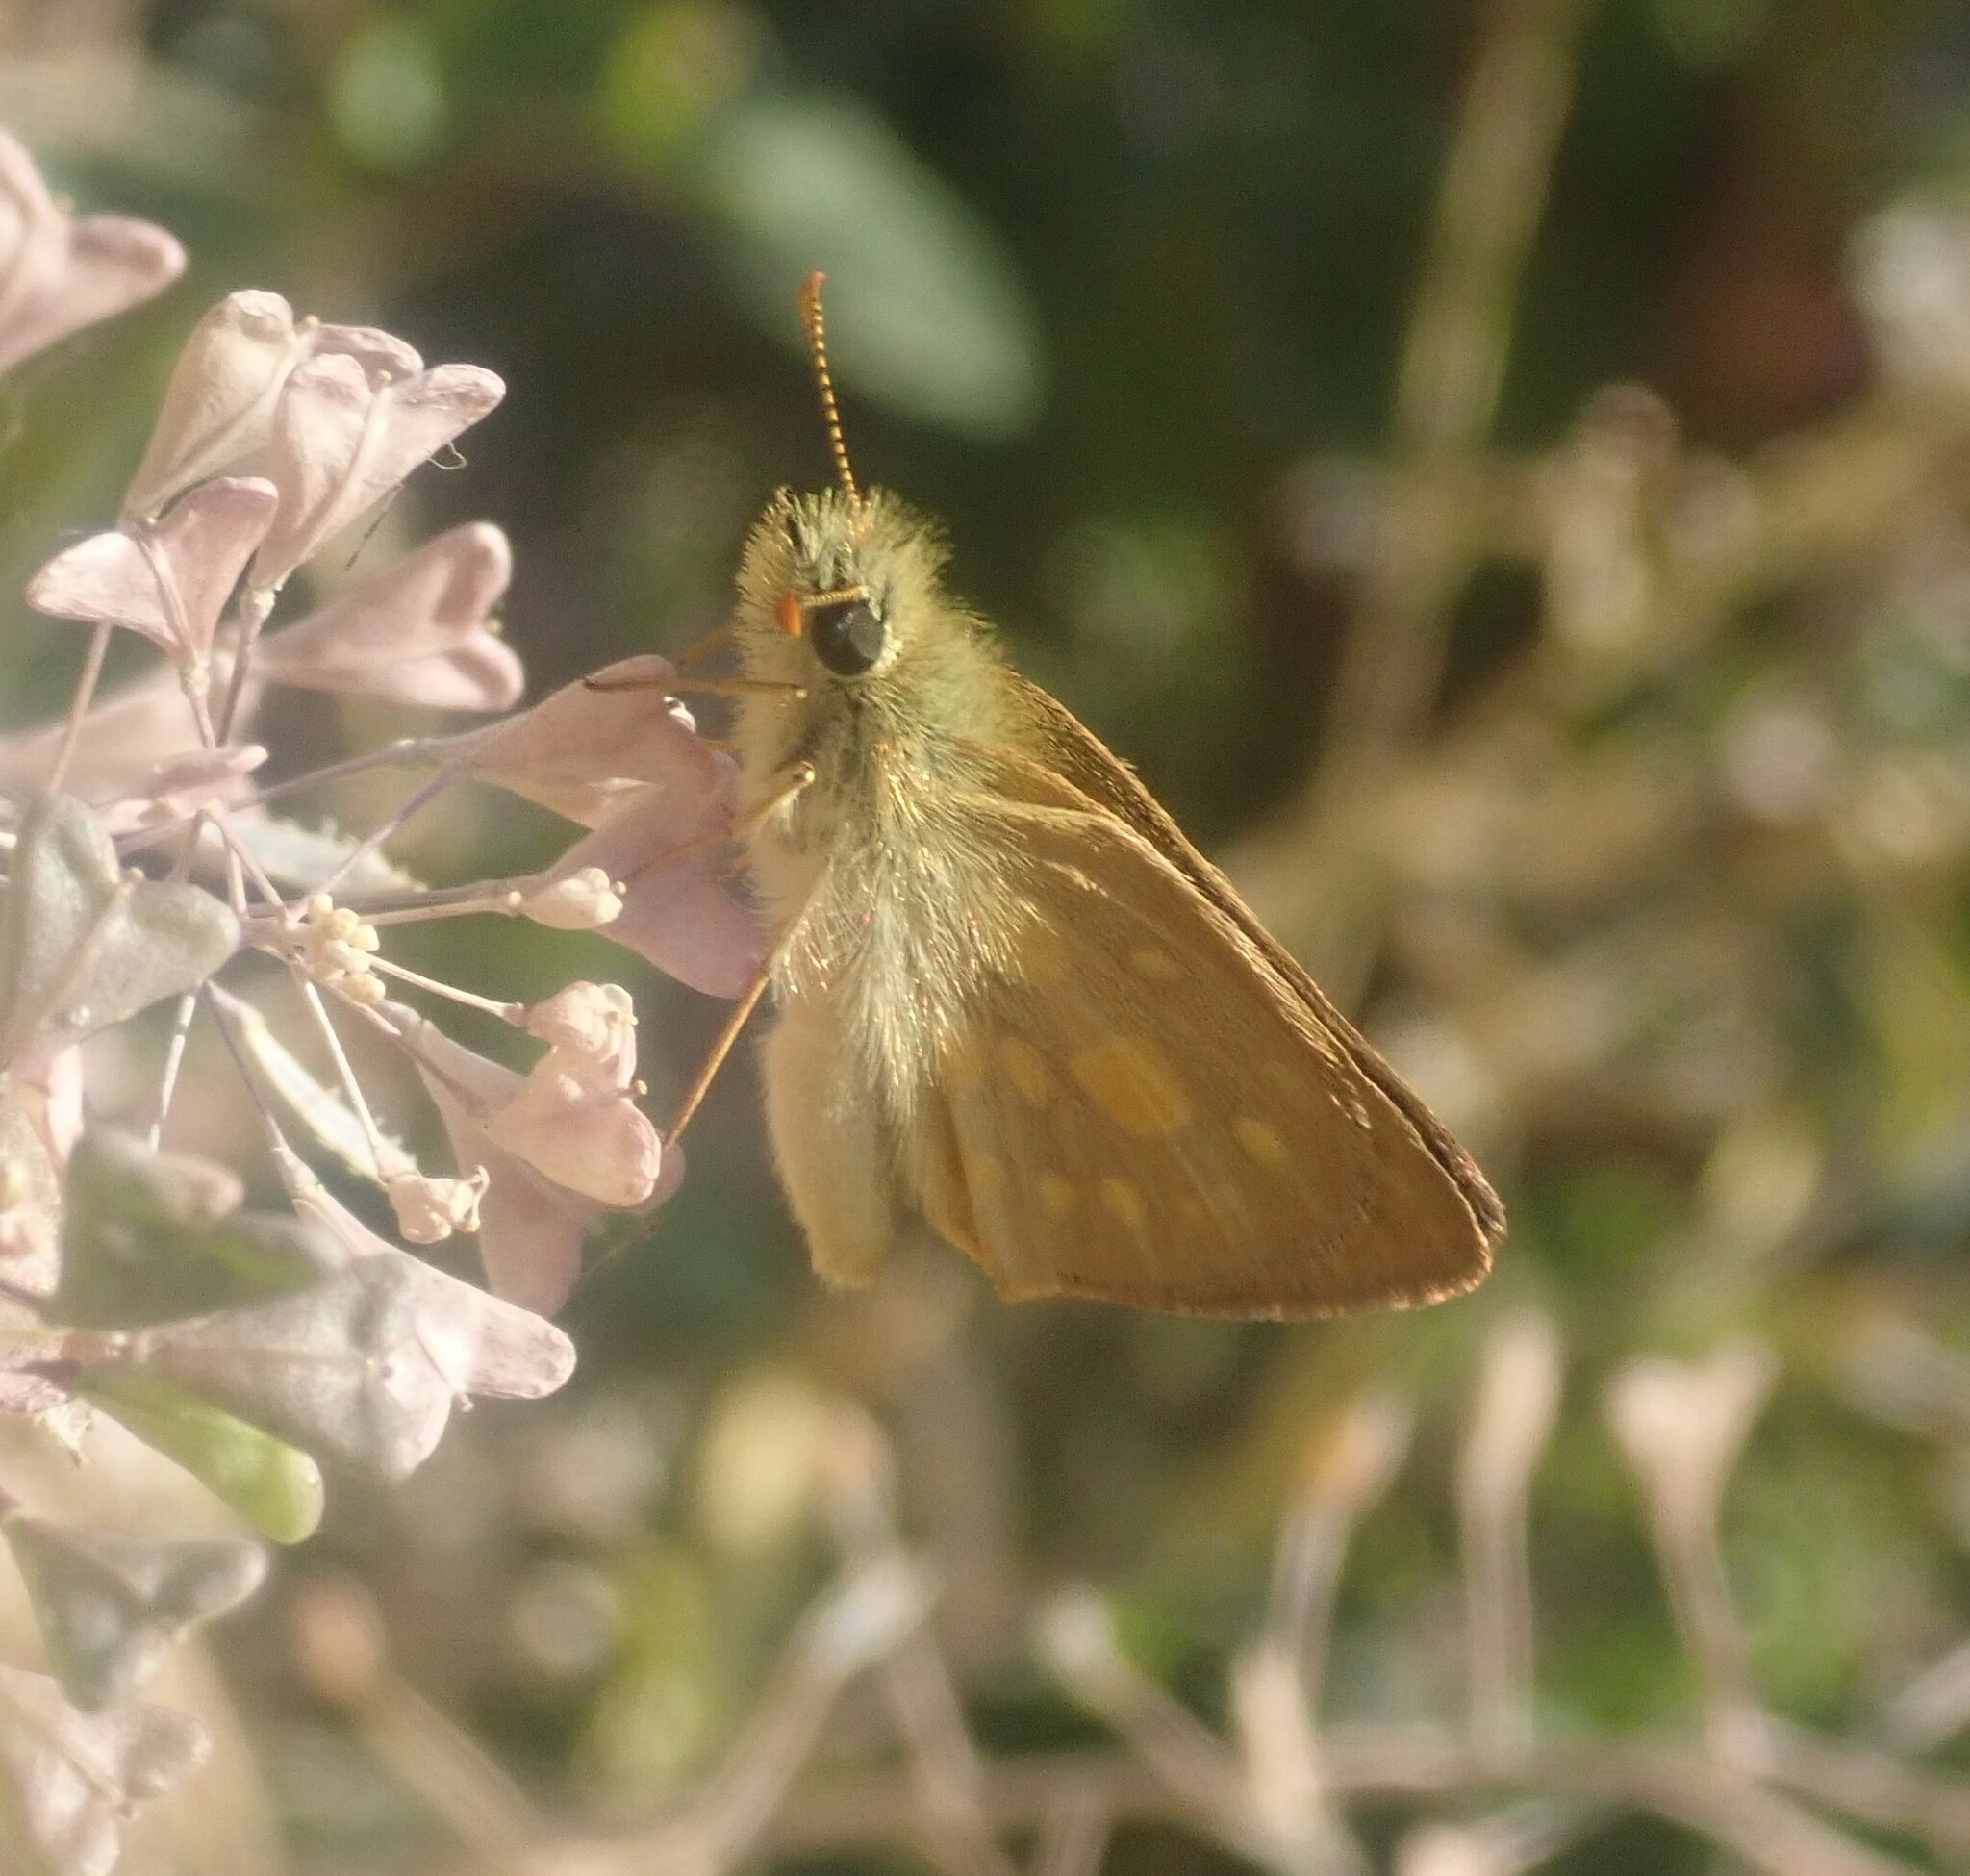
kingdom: Animalia
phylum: Arthropoda
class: Insecta
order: Lepidoptera
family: Hesperiidae
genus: Metisella
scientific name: Metisella malgacha
